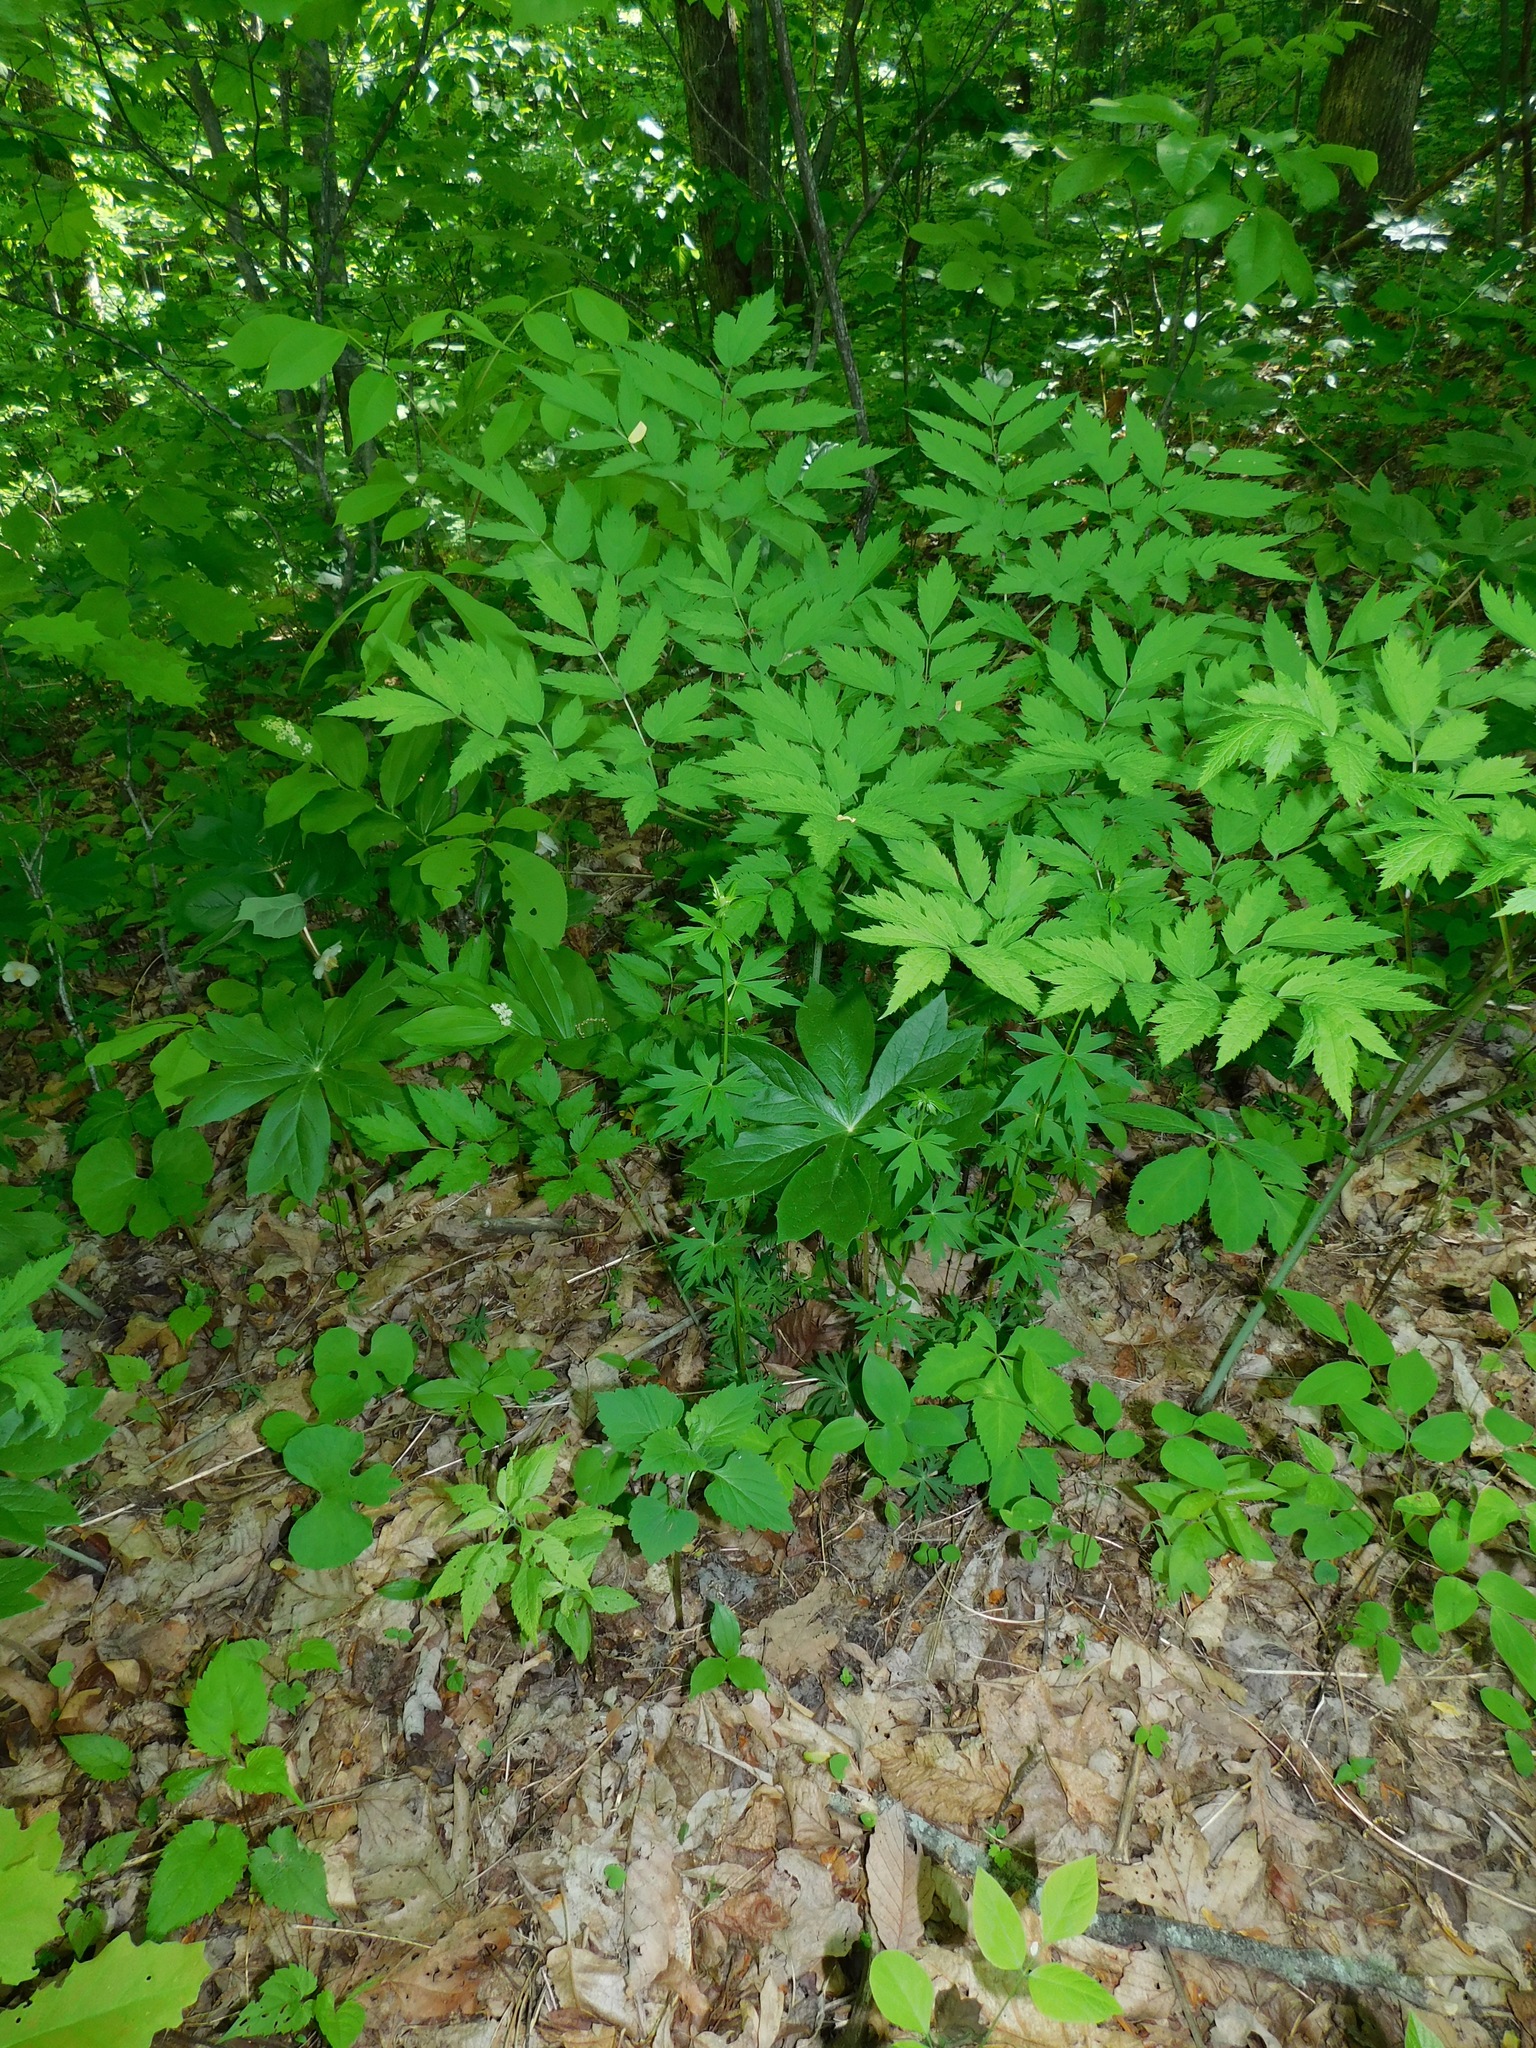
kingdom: Plantae
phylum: Tracheophyta
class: Magnoliopsida
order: Ranunculales
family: Ranunculaceae
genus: Aconitum
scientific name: Aconitum reclinatum
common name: Trailing wolfsbane
